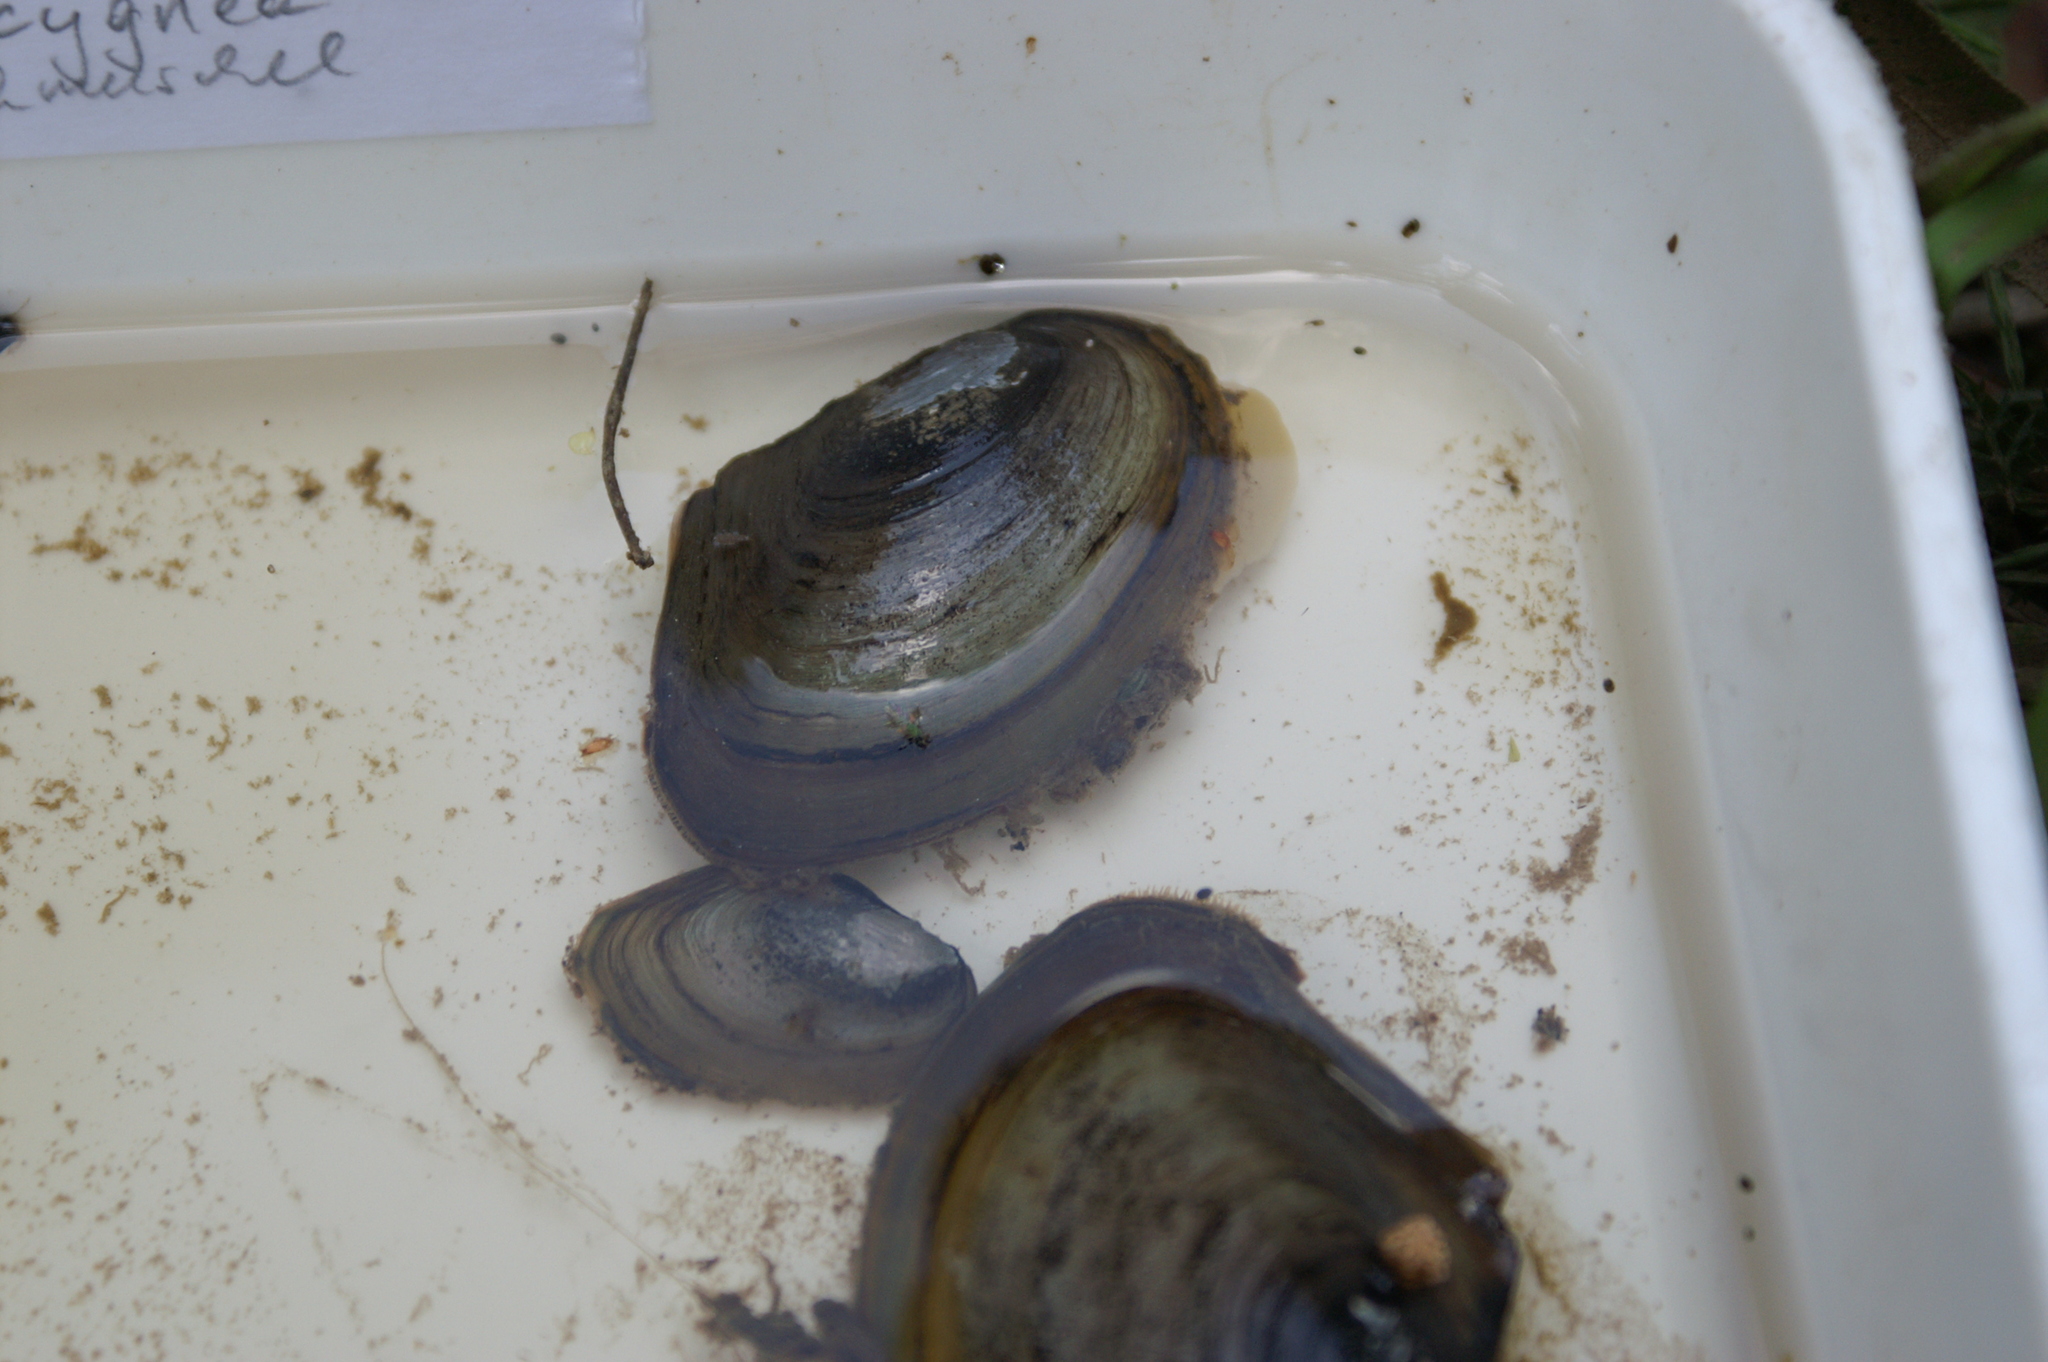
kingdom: Animalia
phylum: Mollusca
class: Bivalvia
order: Unionida
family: Unionidae
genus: Anodonta
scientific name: Anodonta anatina
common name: Duck mussel
